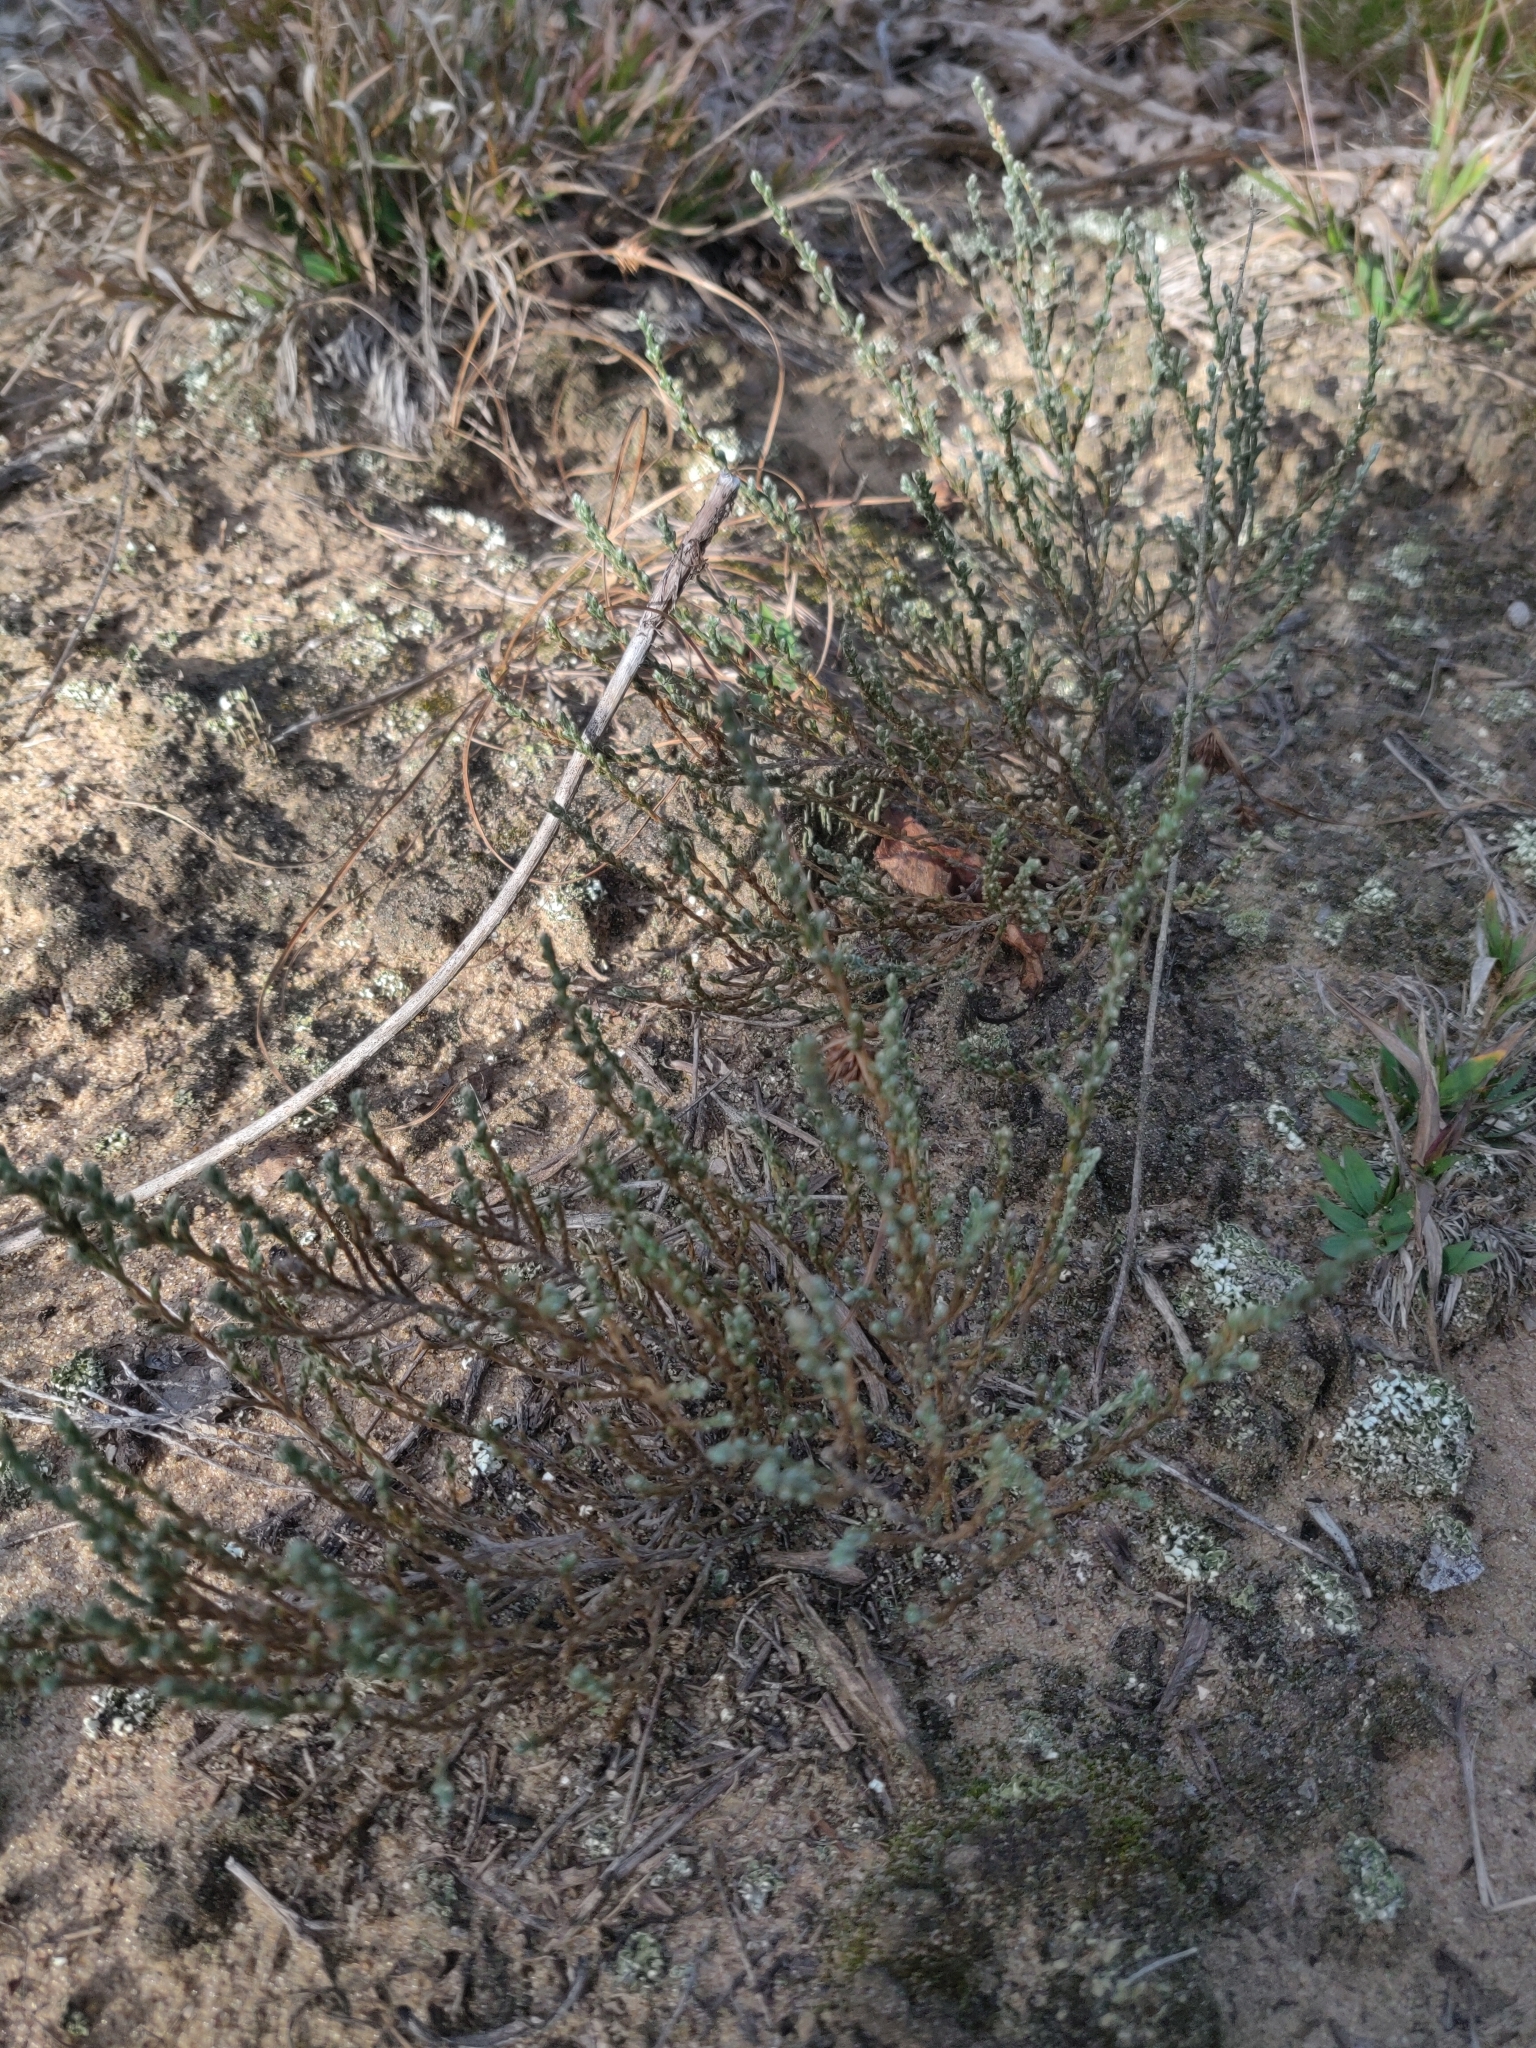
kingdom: Plantae
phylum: Tracheophyta
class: Magnoliopsida
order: Malvales
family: Cistaceae
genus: Hudsonia
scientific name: Hudsonia tomentosa
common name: Beach-heath
